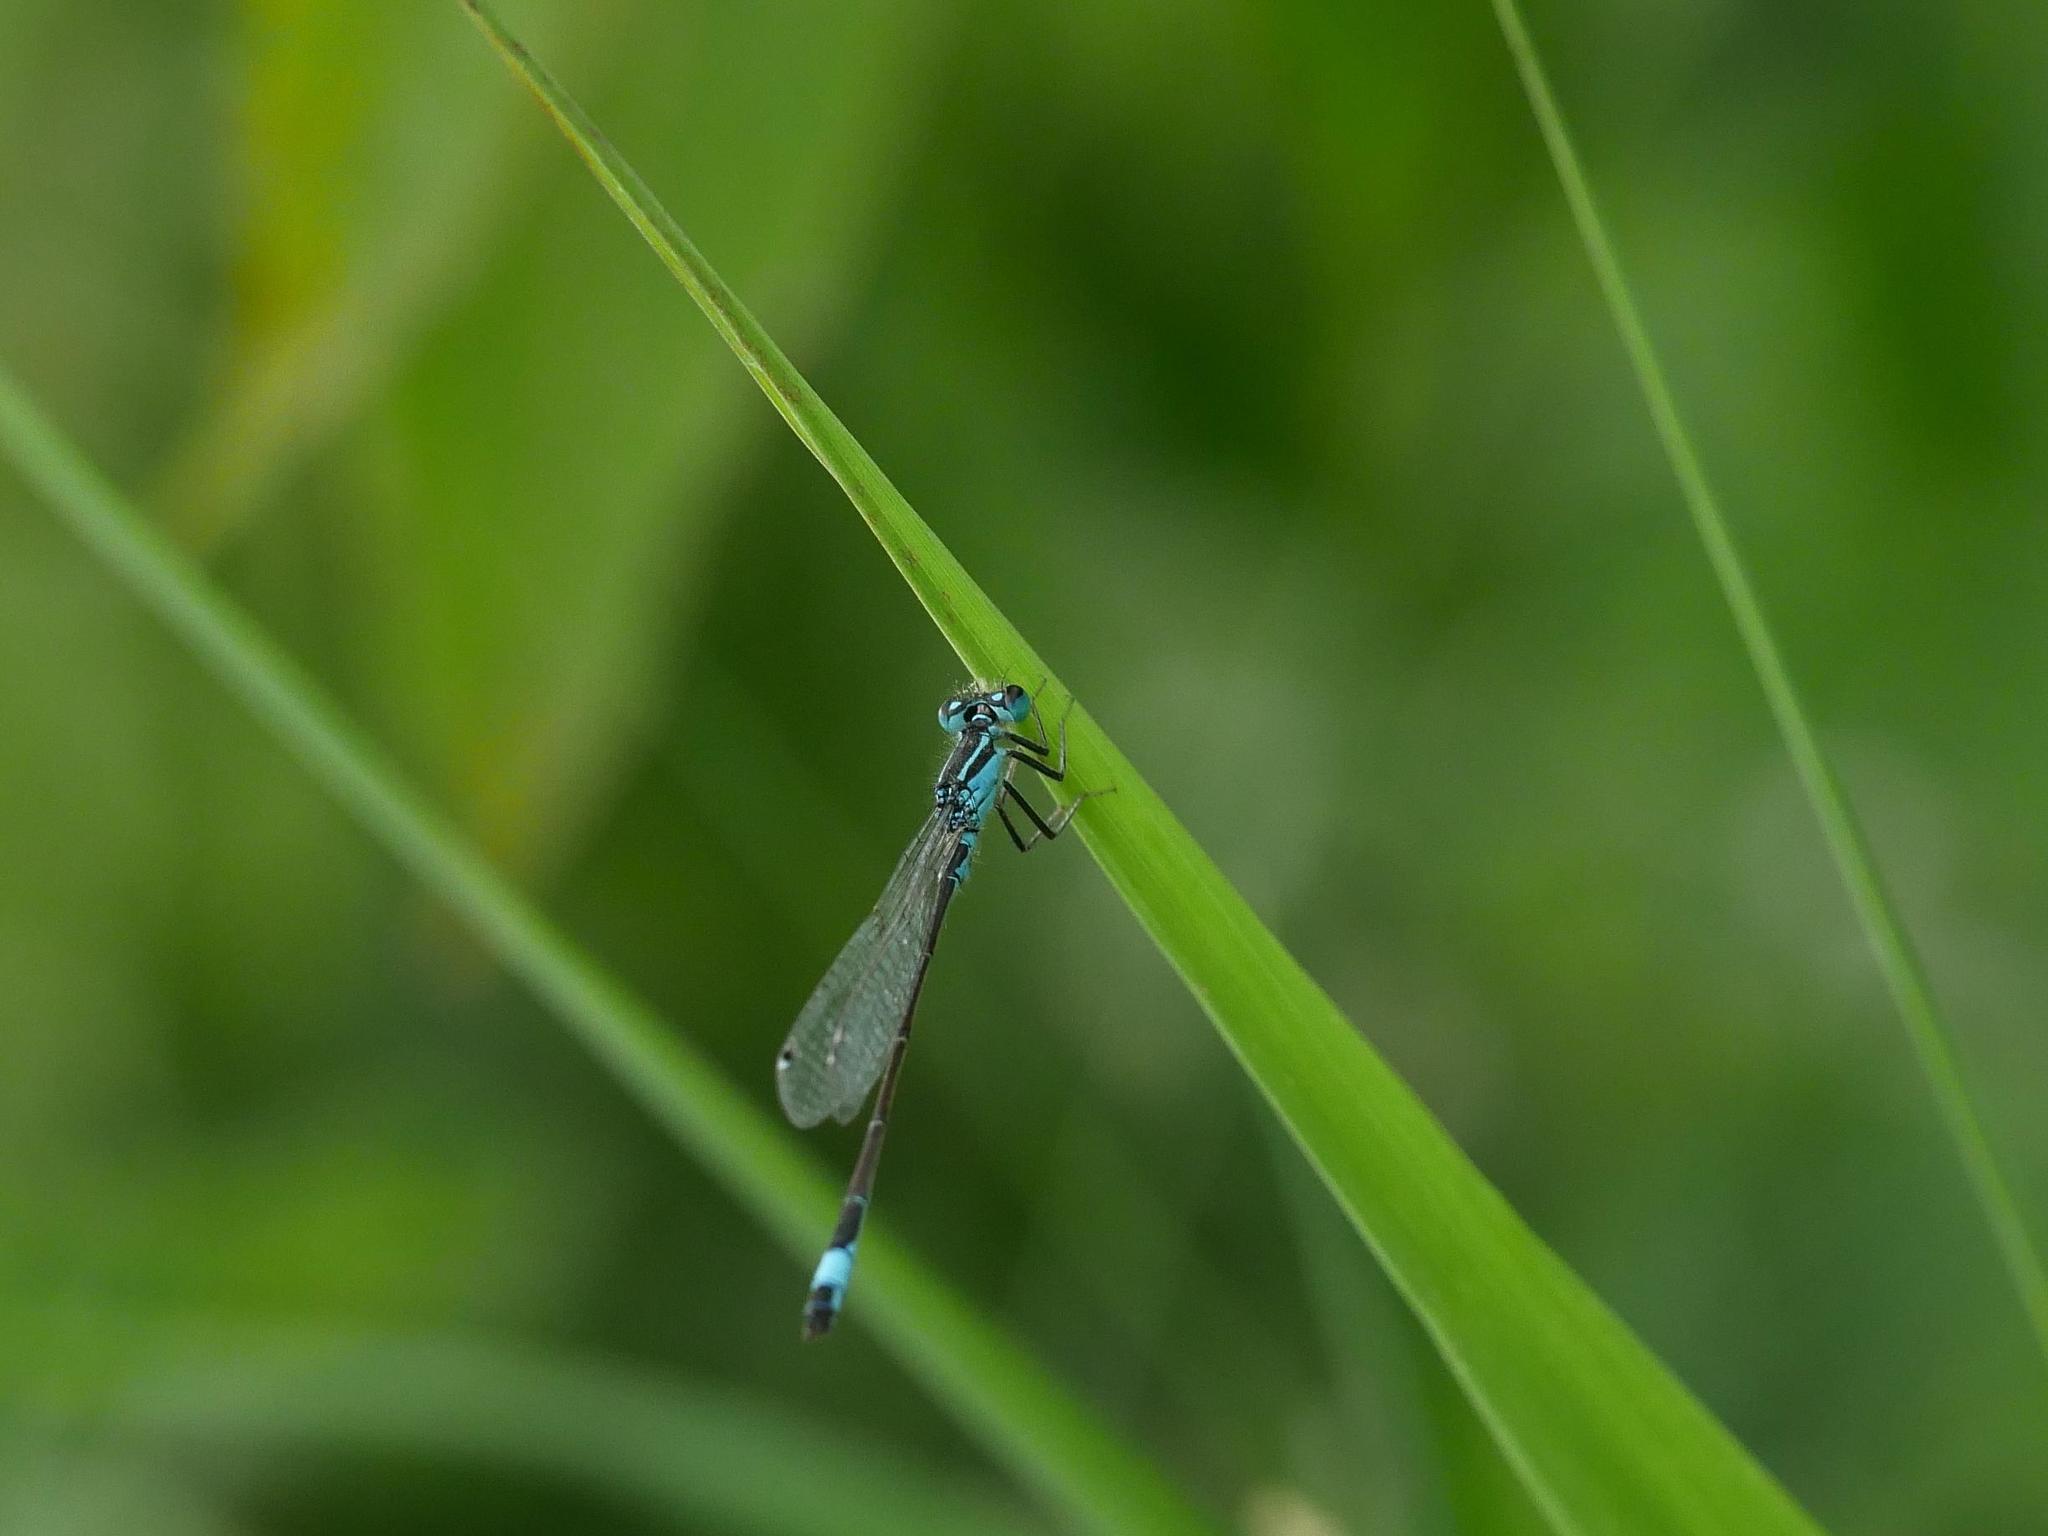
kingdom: Animalia
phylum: Arthropoda
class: Insecta
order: Odonata
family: Coenagrionidae
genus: Ischnura
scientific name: Ischnura elegans
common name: Blue-tailed damselfly
